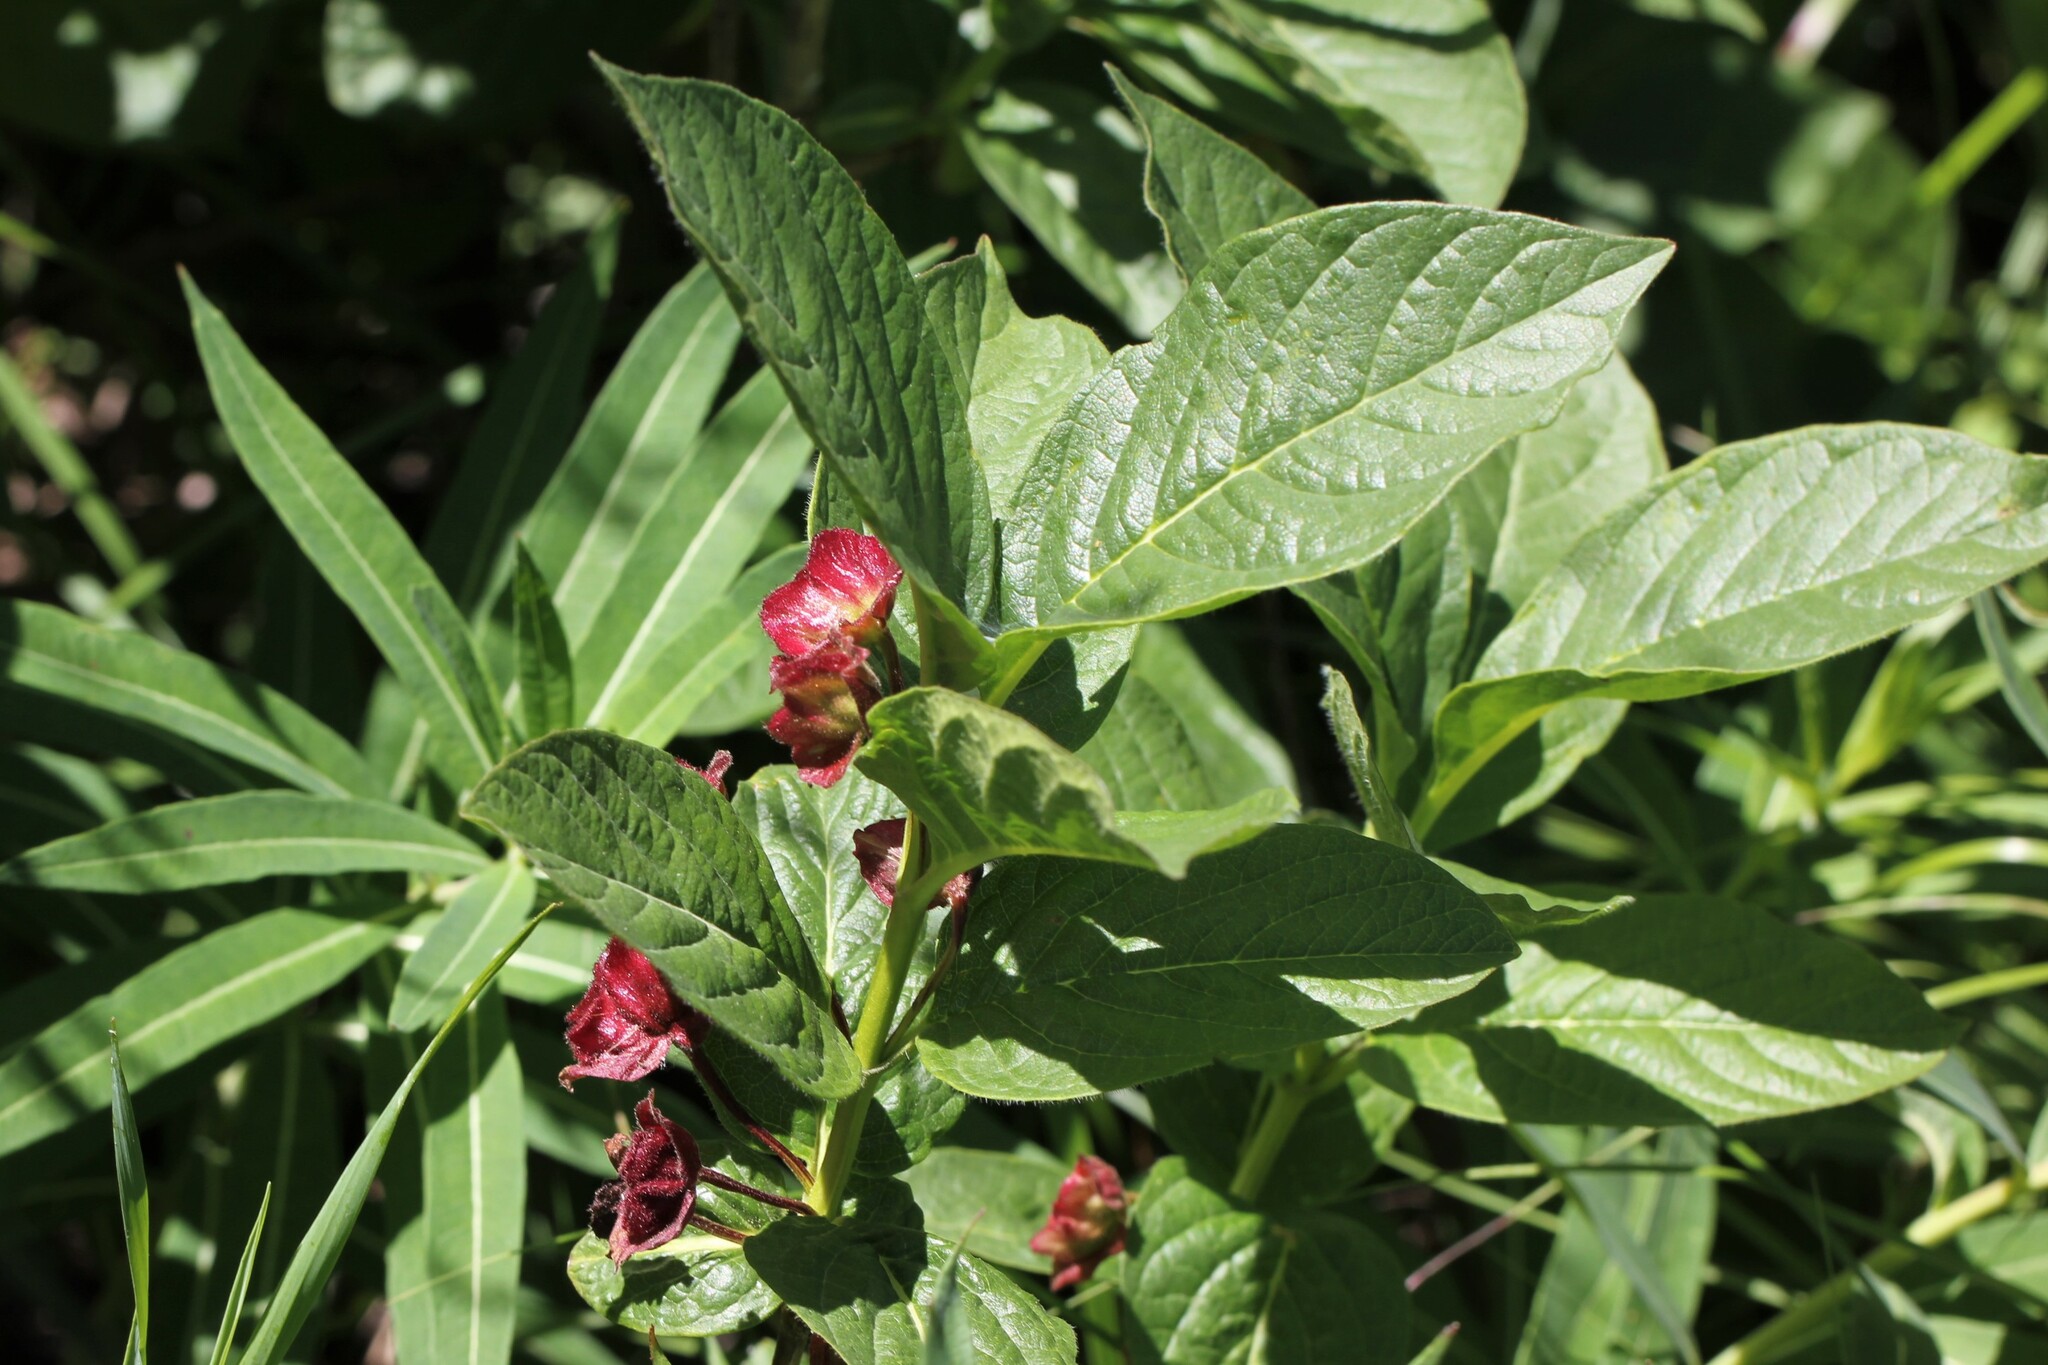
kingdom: Plantae
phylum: Tracheophyta
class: Magnoliopsida
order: Dipsacales
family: Caprifoliaceae
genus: Lonicera
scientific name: Lonicera involucrata
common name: Californian honeysuckle
